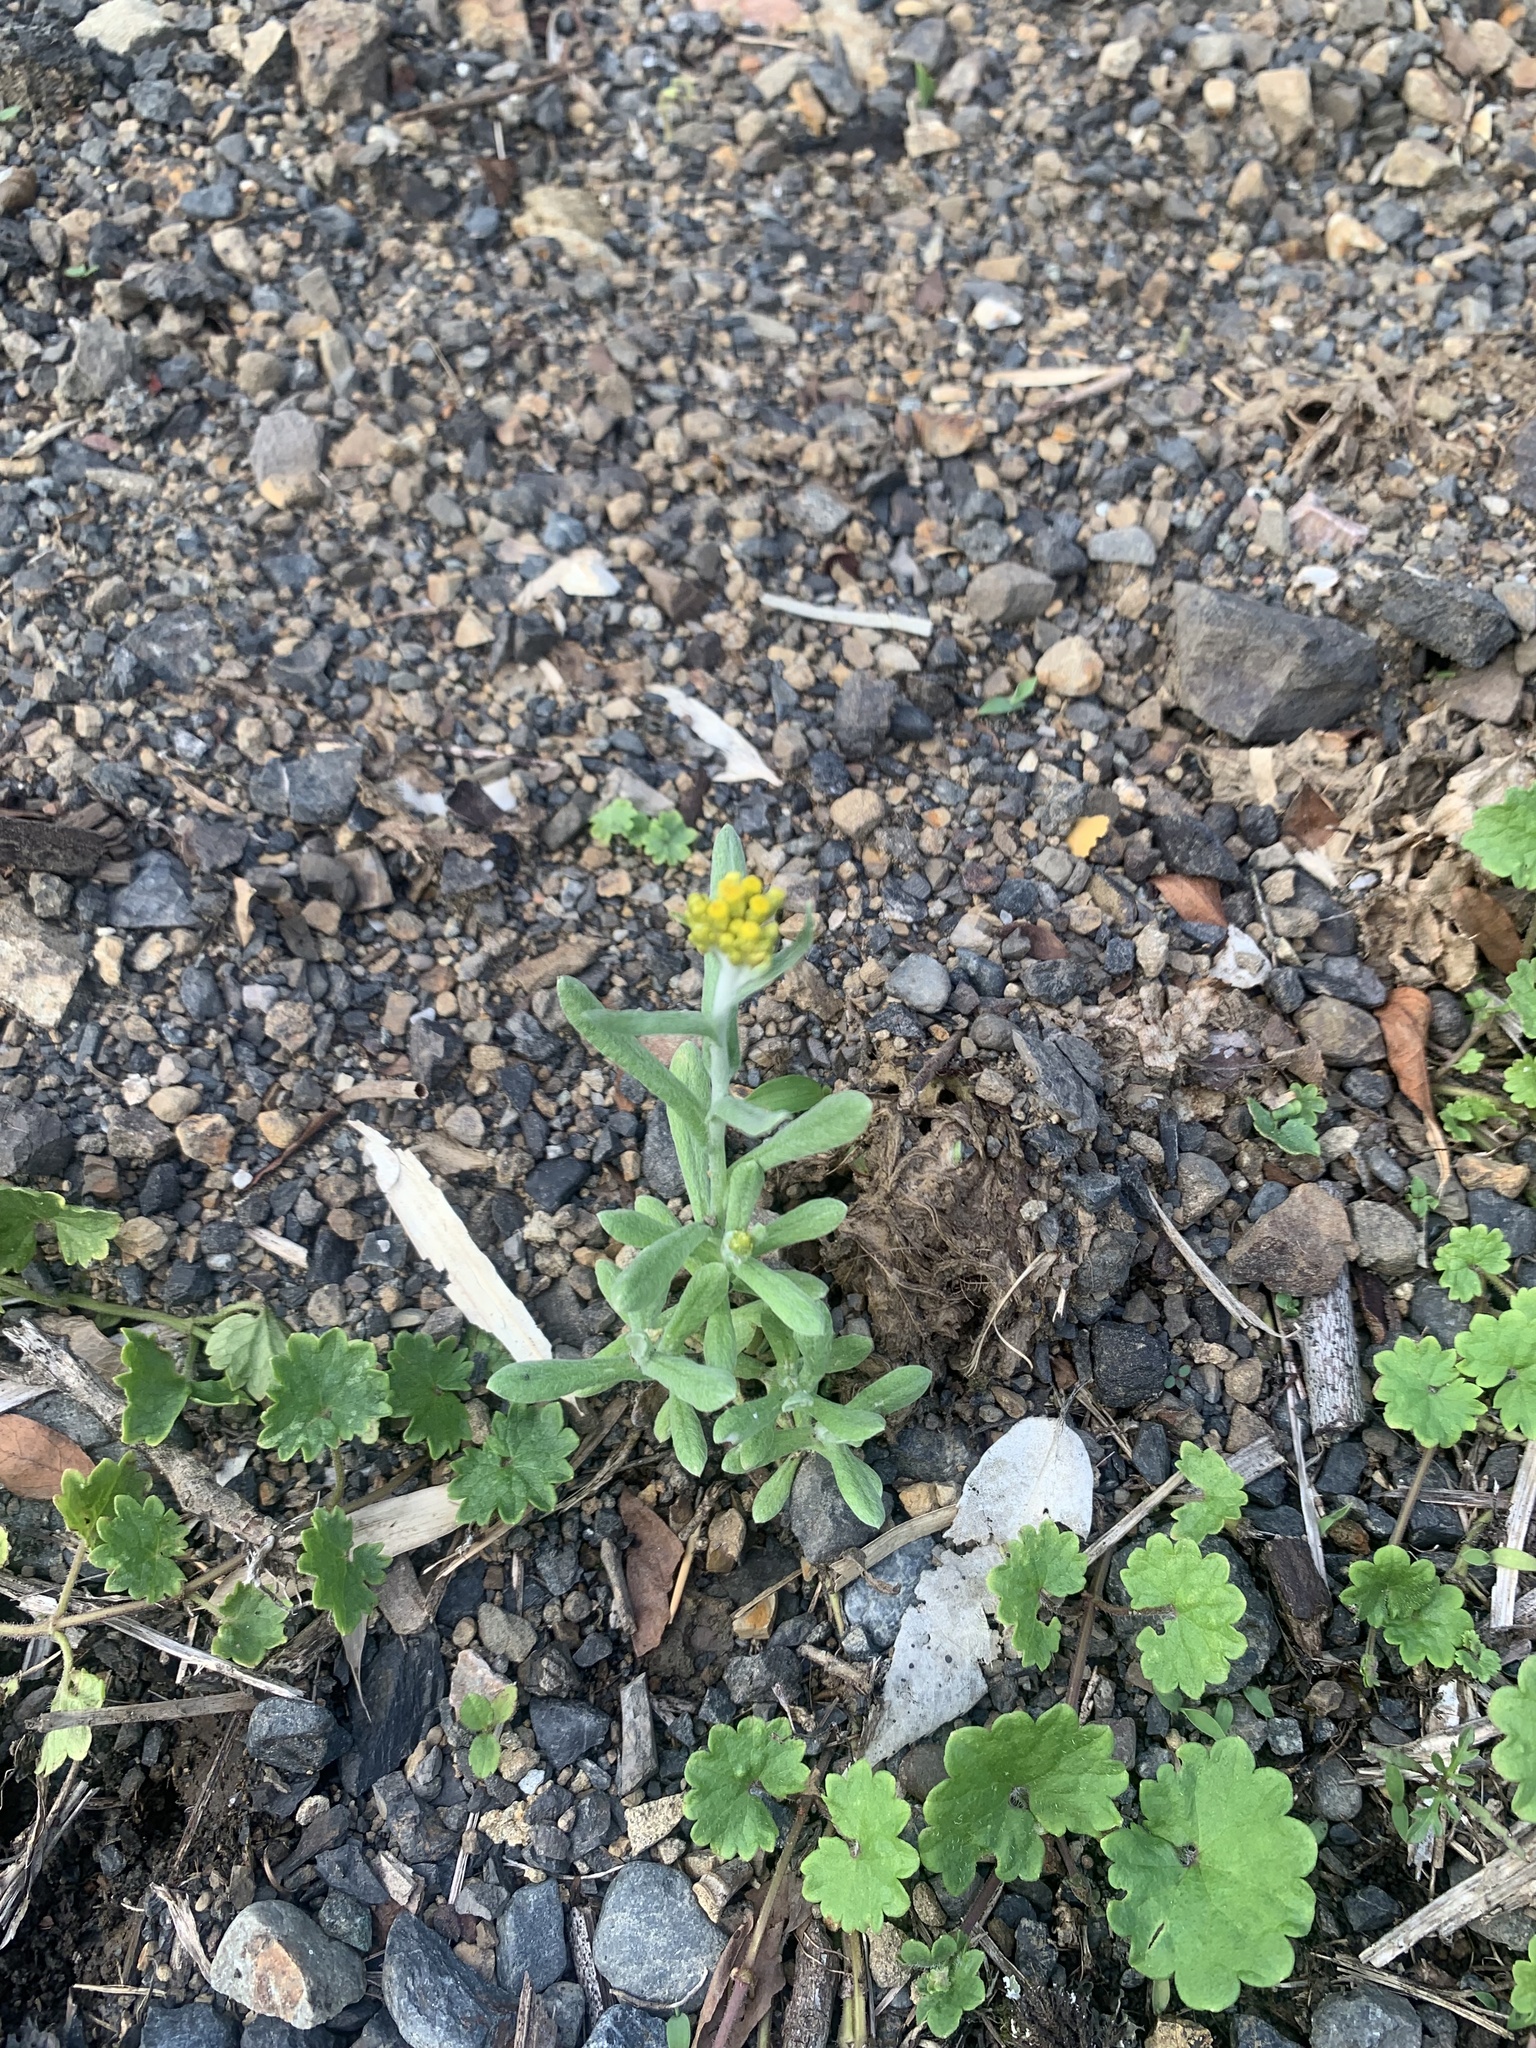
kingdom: Plantae
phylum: Tracheophyta
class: Magnoliopsida
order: Asterales
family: Asteraceae
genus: Pseudognaphalium
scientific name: Pseudognaphalium affine
